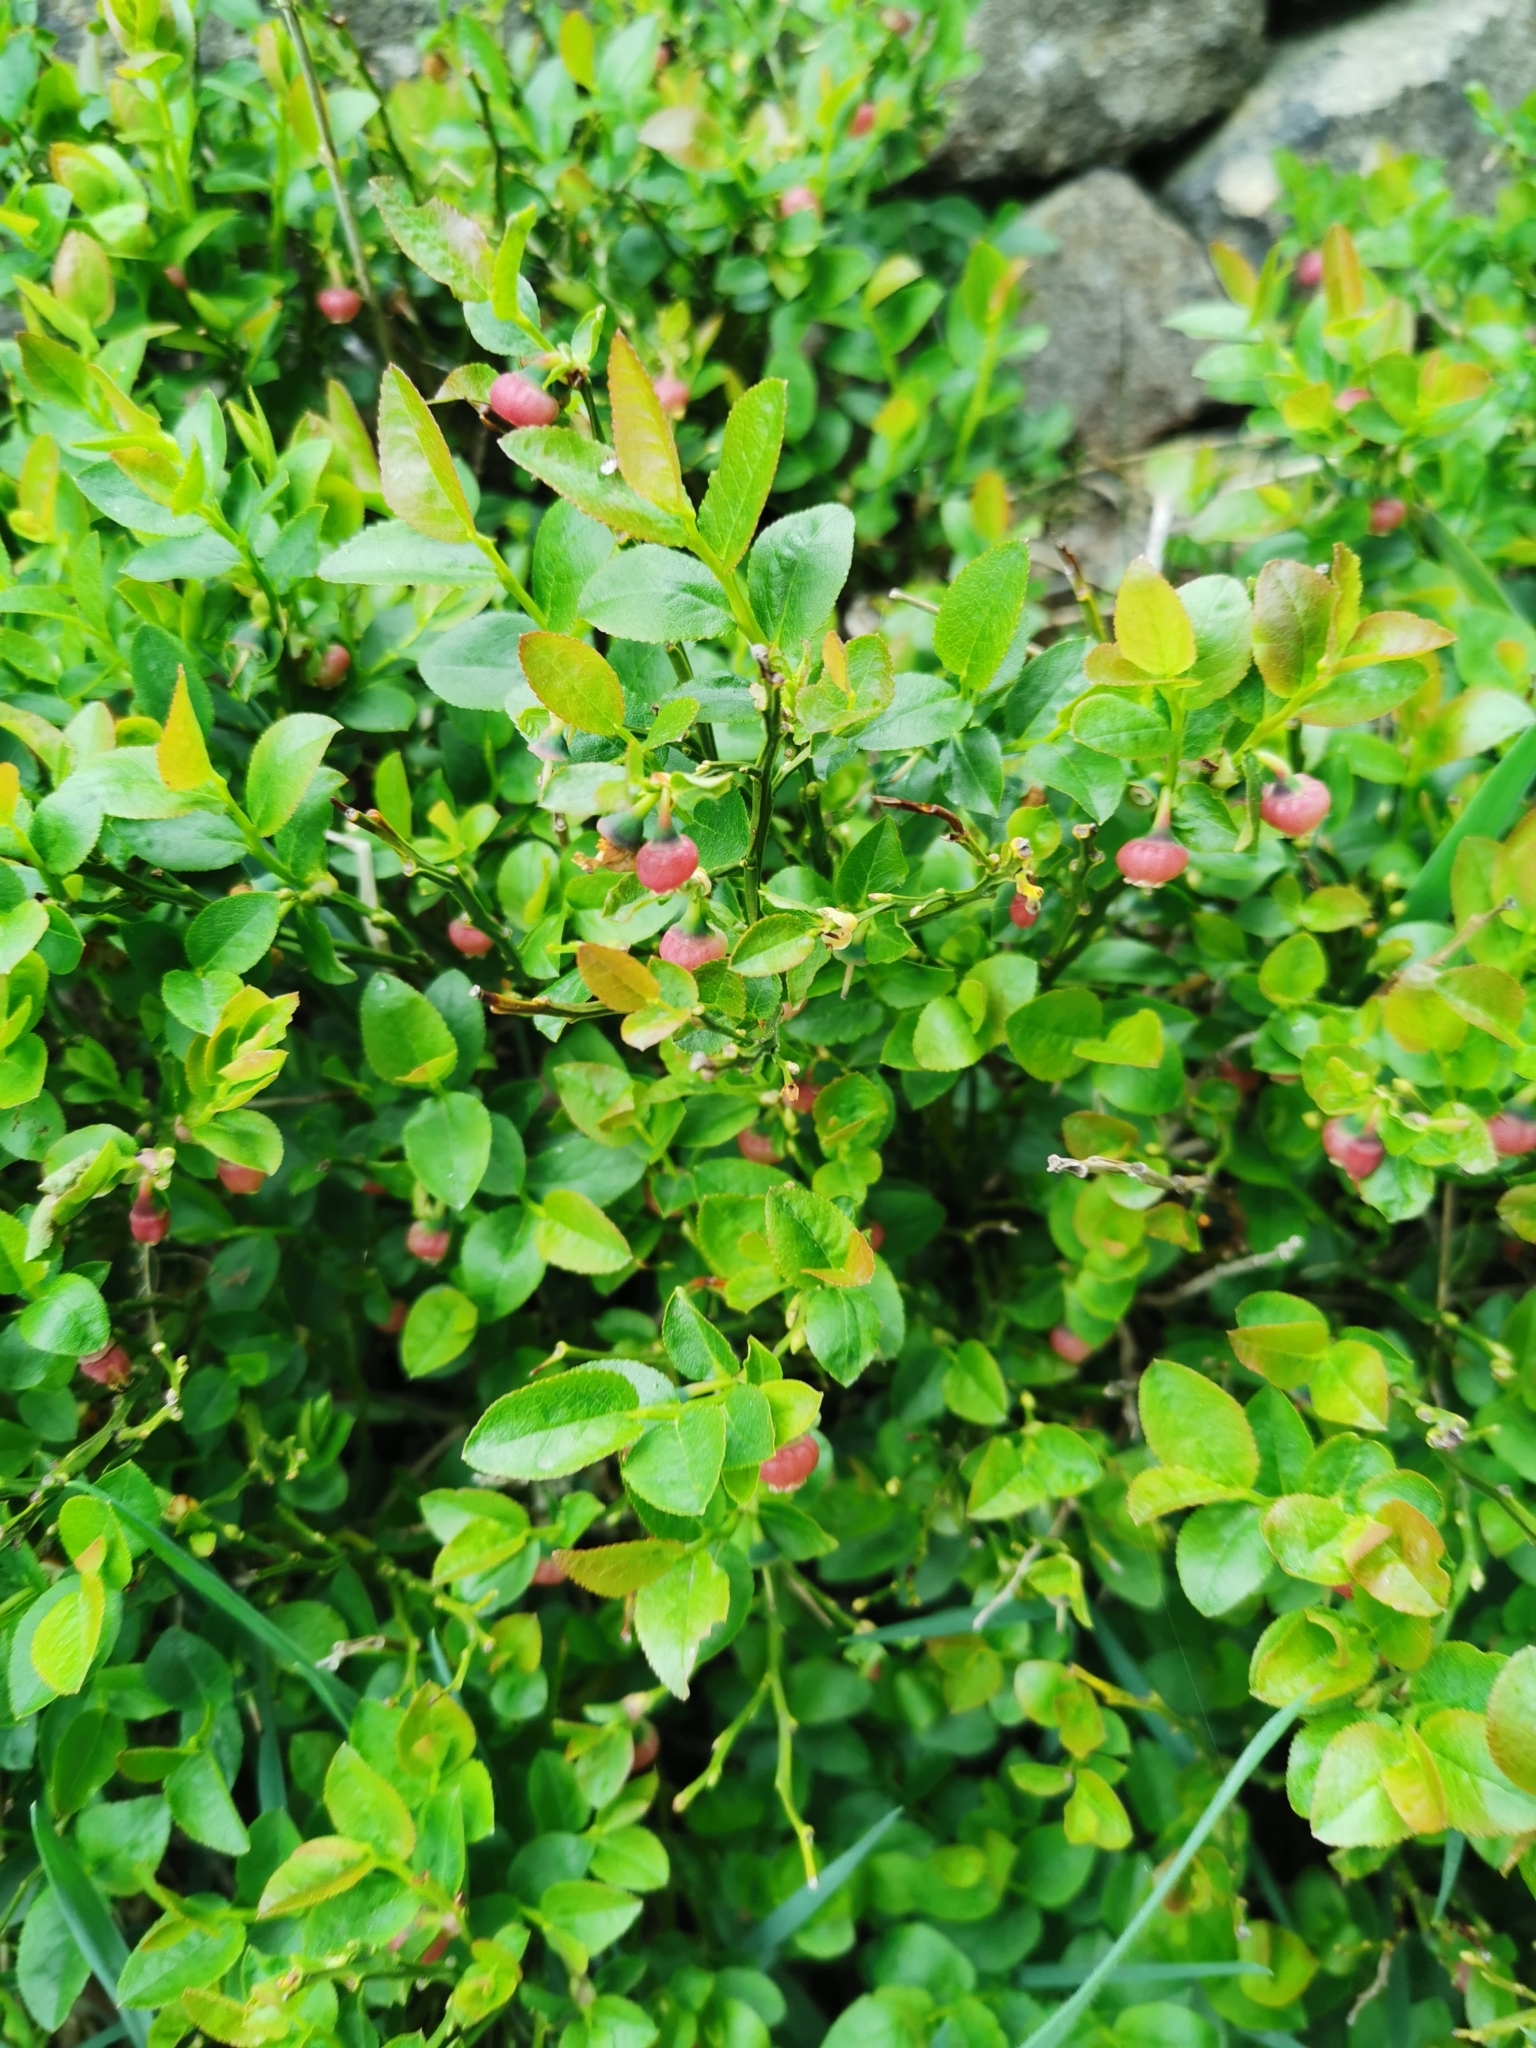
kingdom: Plantae
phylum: Tracheophyta
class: Magnoliopsida
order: Ericales
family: Ericaceae
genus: Vaccinium
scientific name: Vaccinium myrtillus
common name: Bilberry
